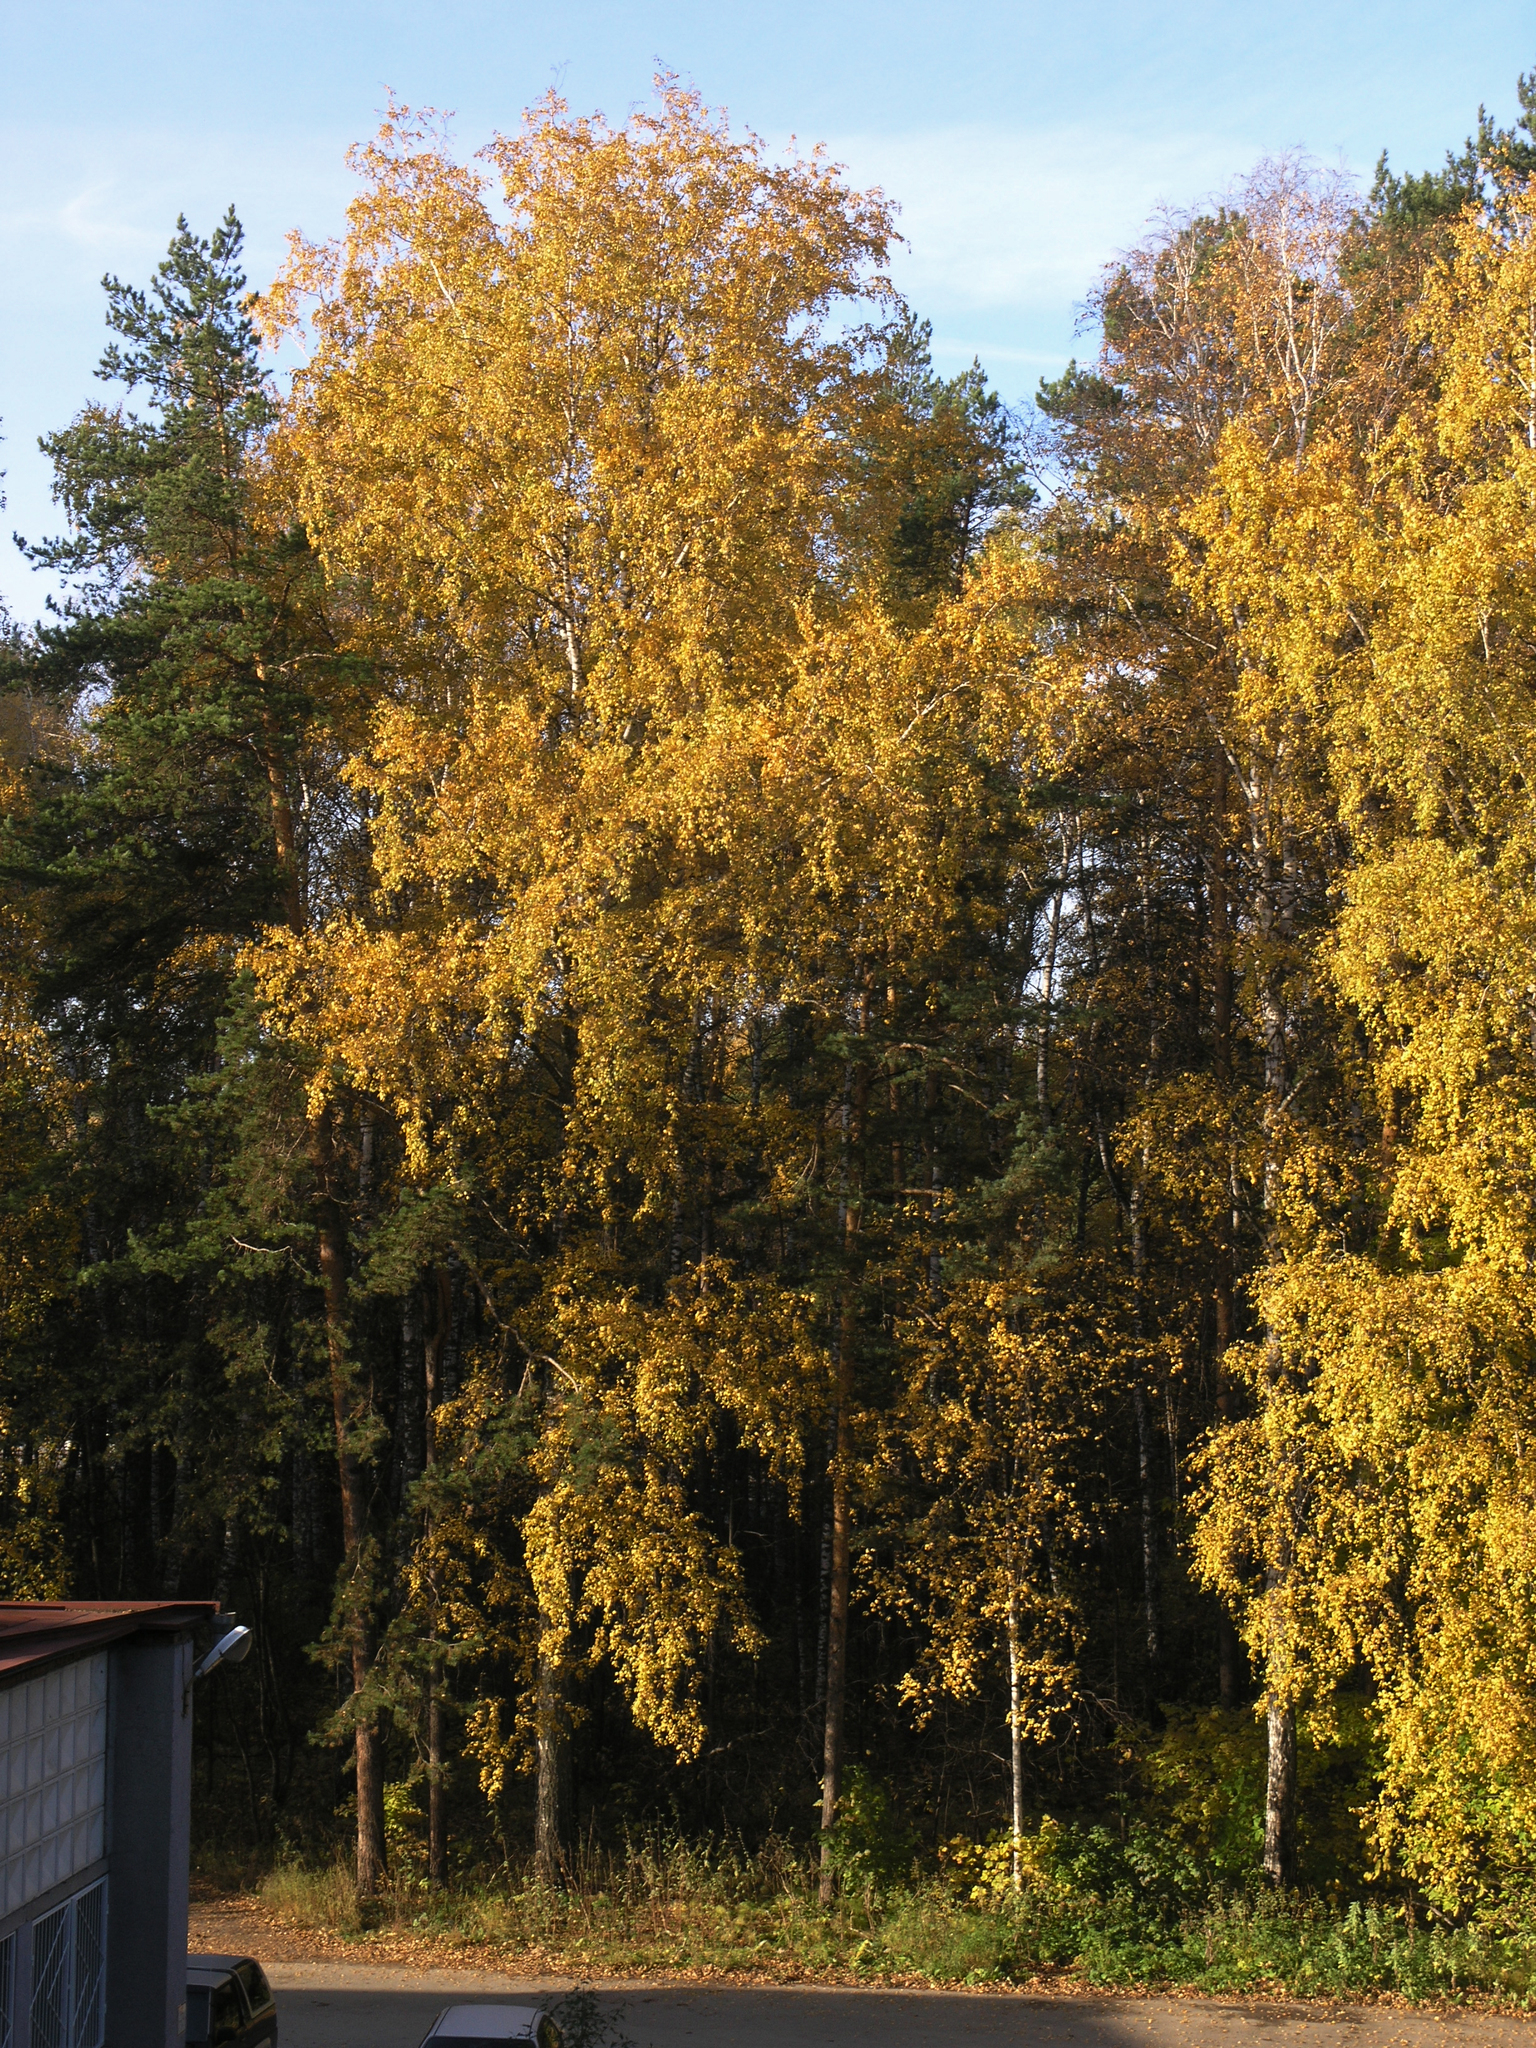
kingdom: Plantae
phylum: Tracheophyta
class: Magnoliopsida
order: Fagales
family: Betulaceae
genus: Betula
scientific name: Betula pendula
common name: Silver birch
